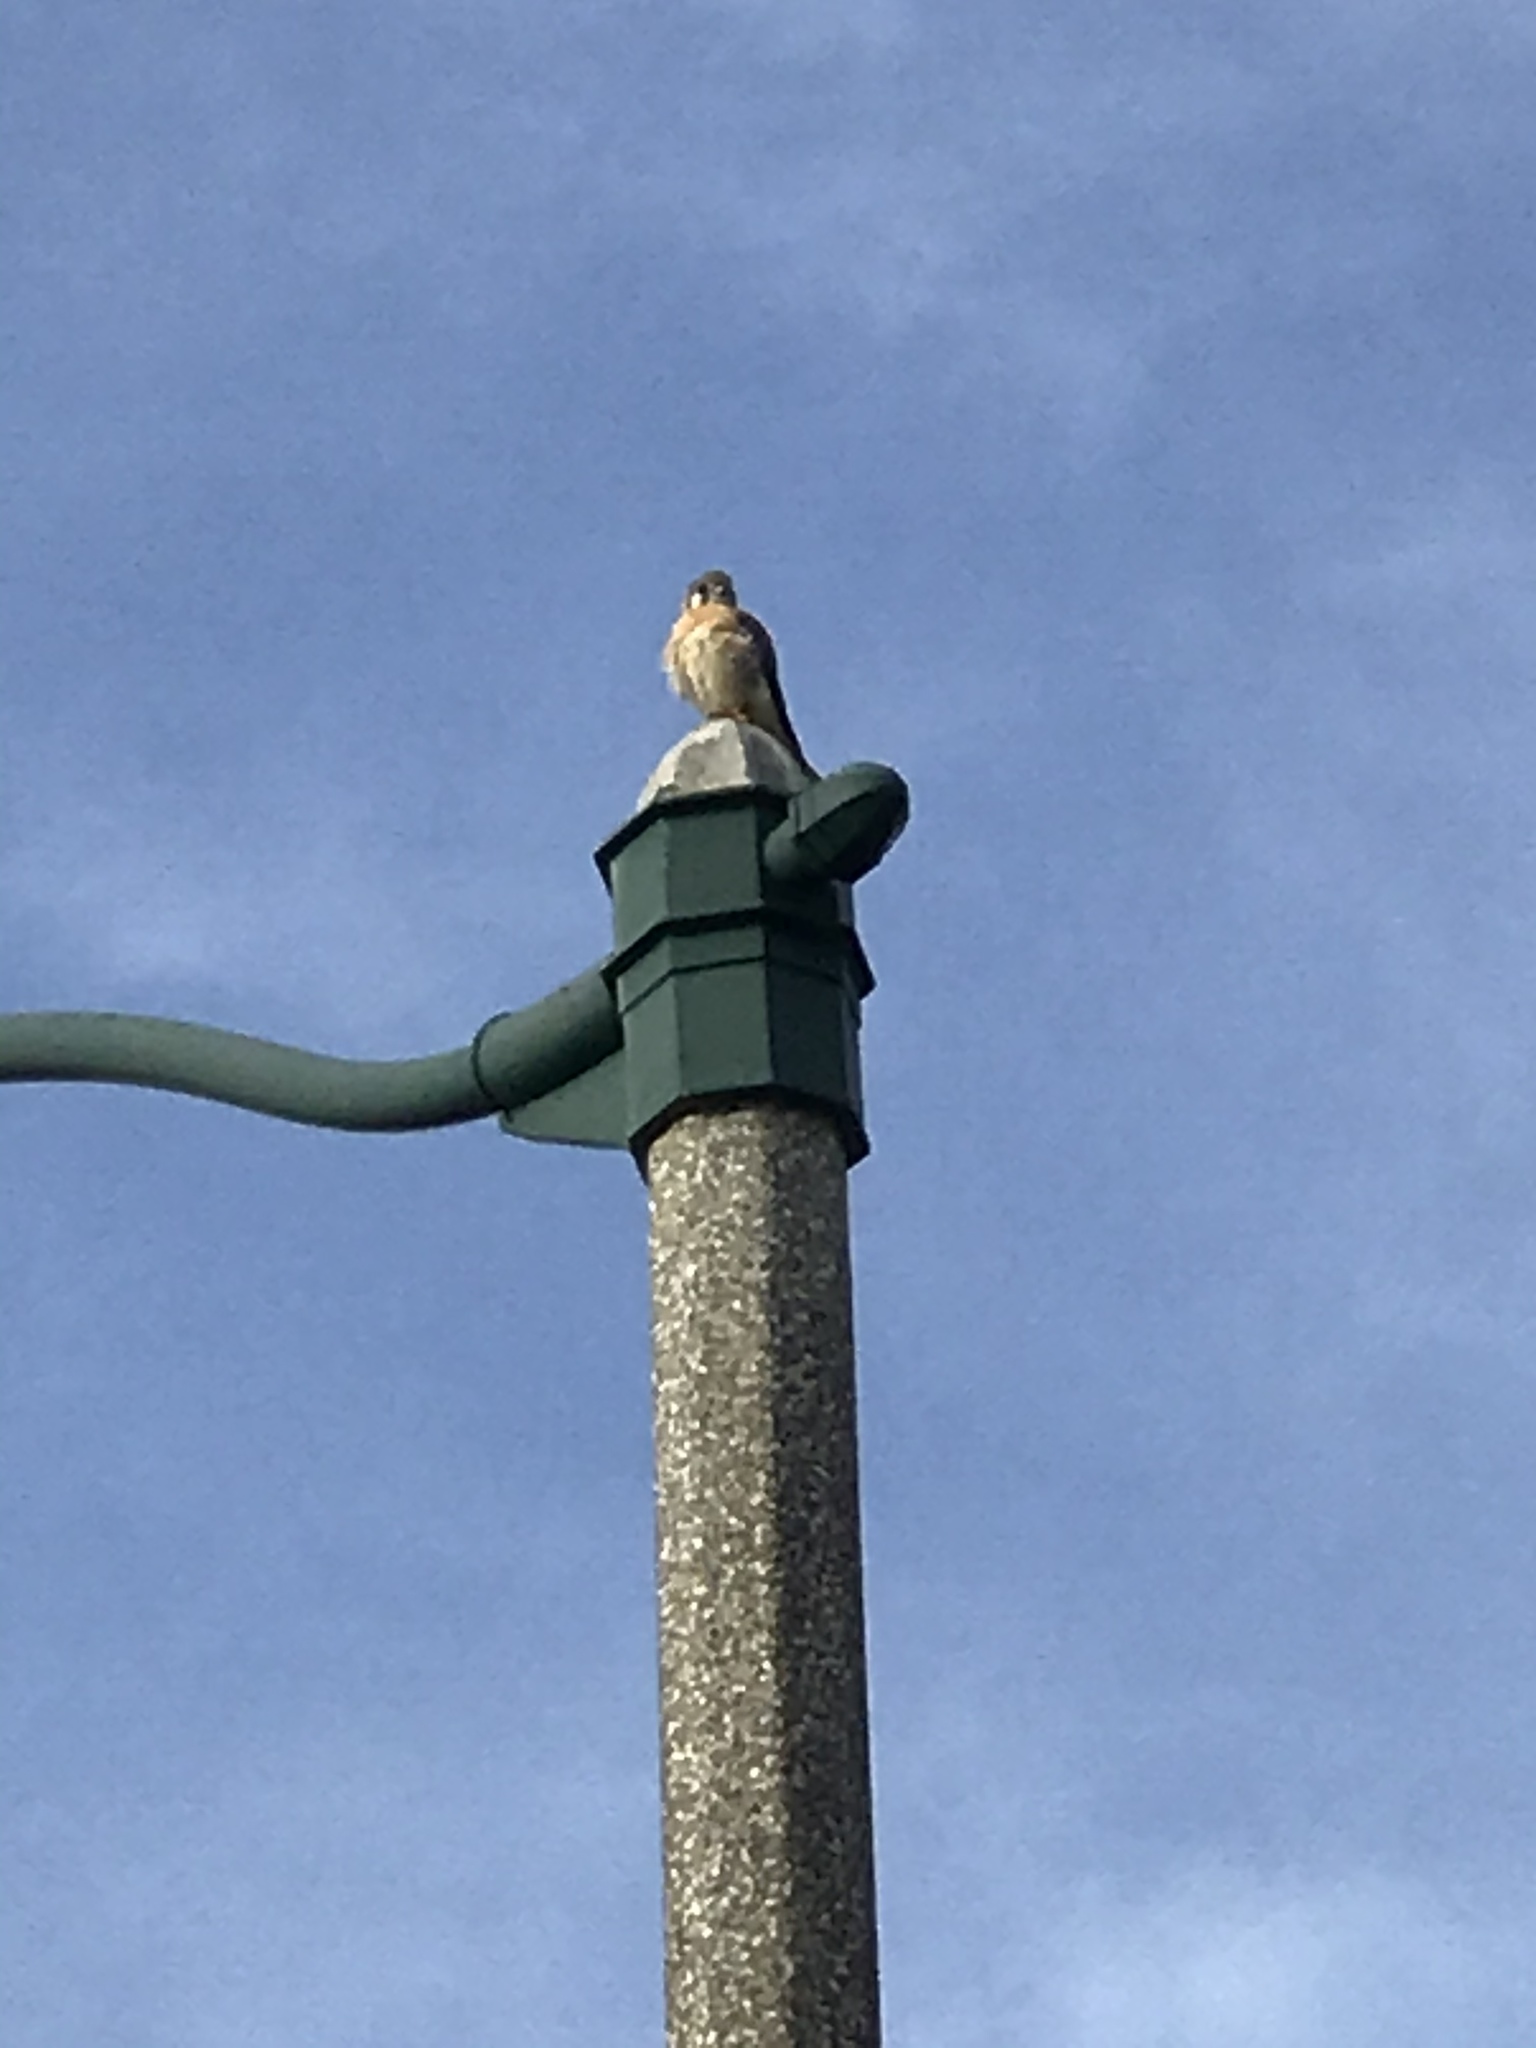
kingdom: Animalia
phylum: Chordata
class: Aves
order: Falconiformes
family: Falconidae
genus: Falco
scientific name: Falco sparverius
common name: American kestrel
